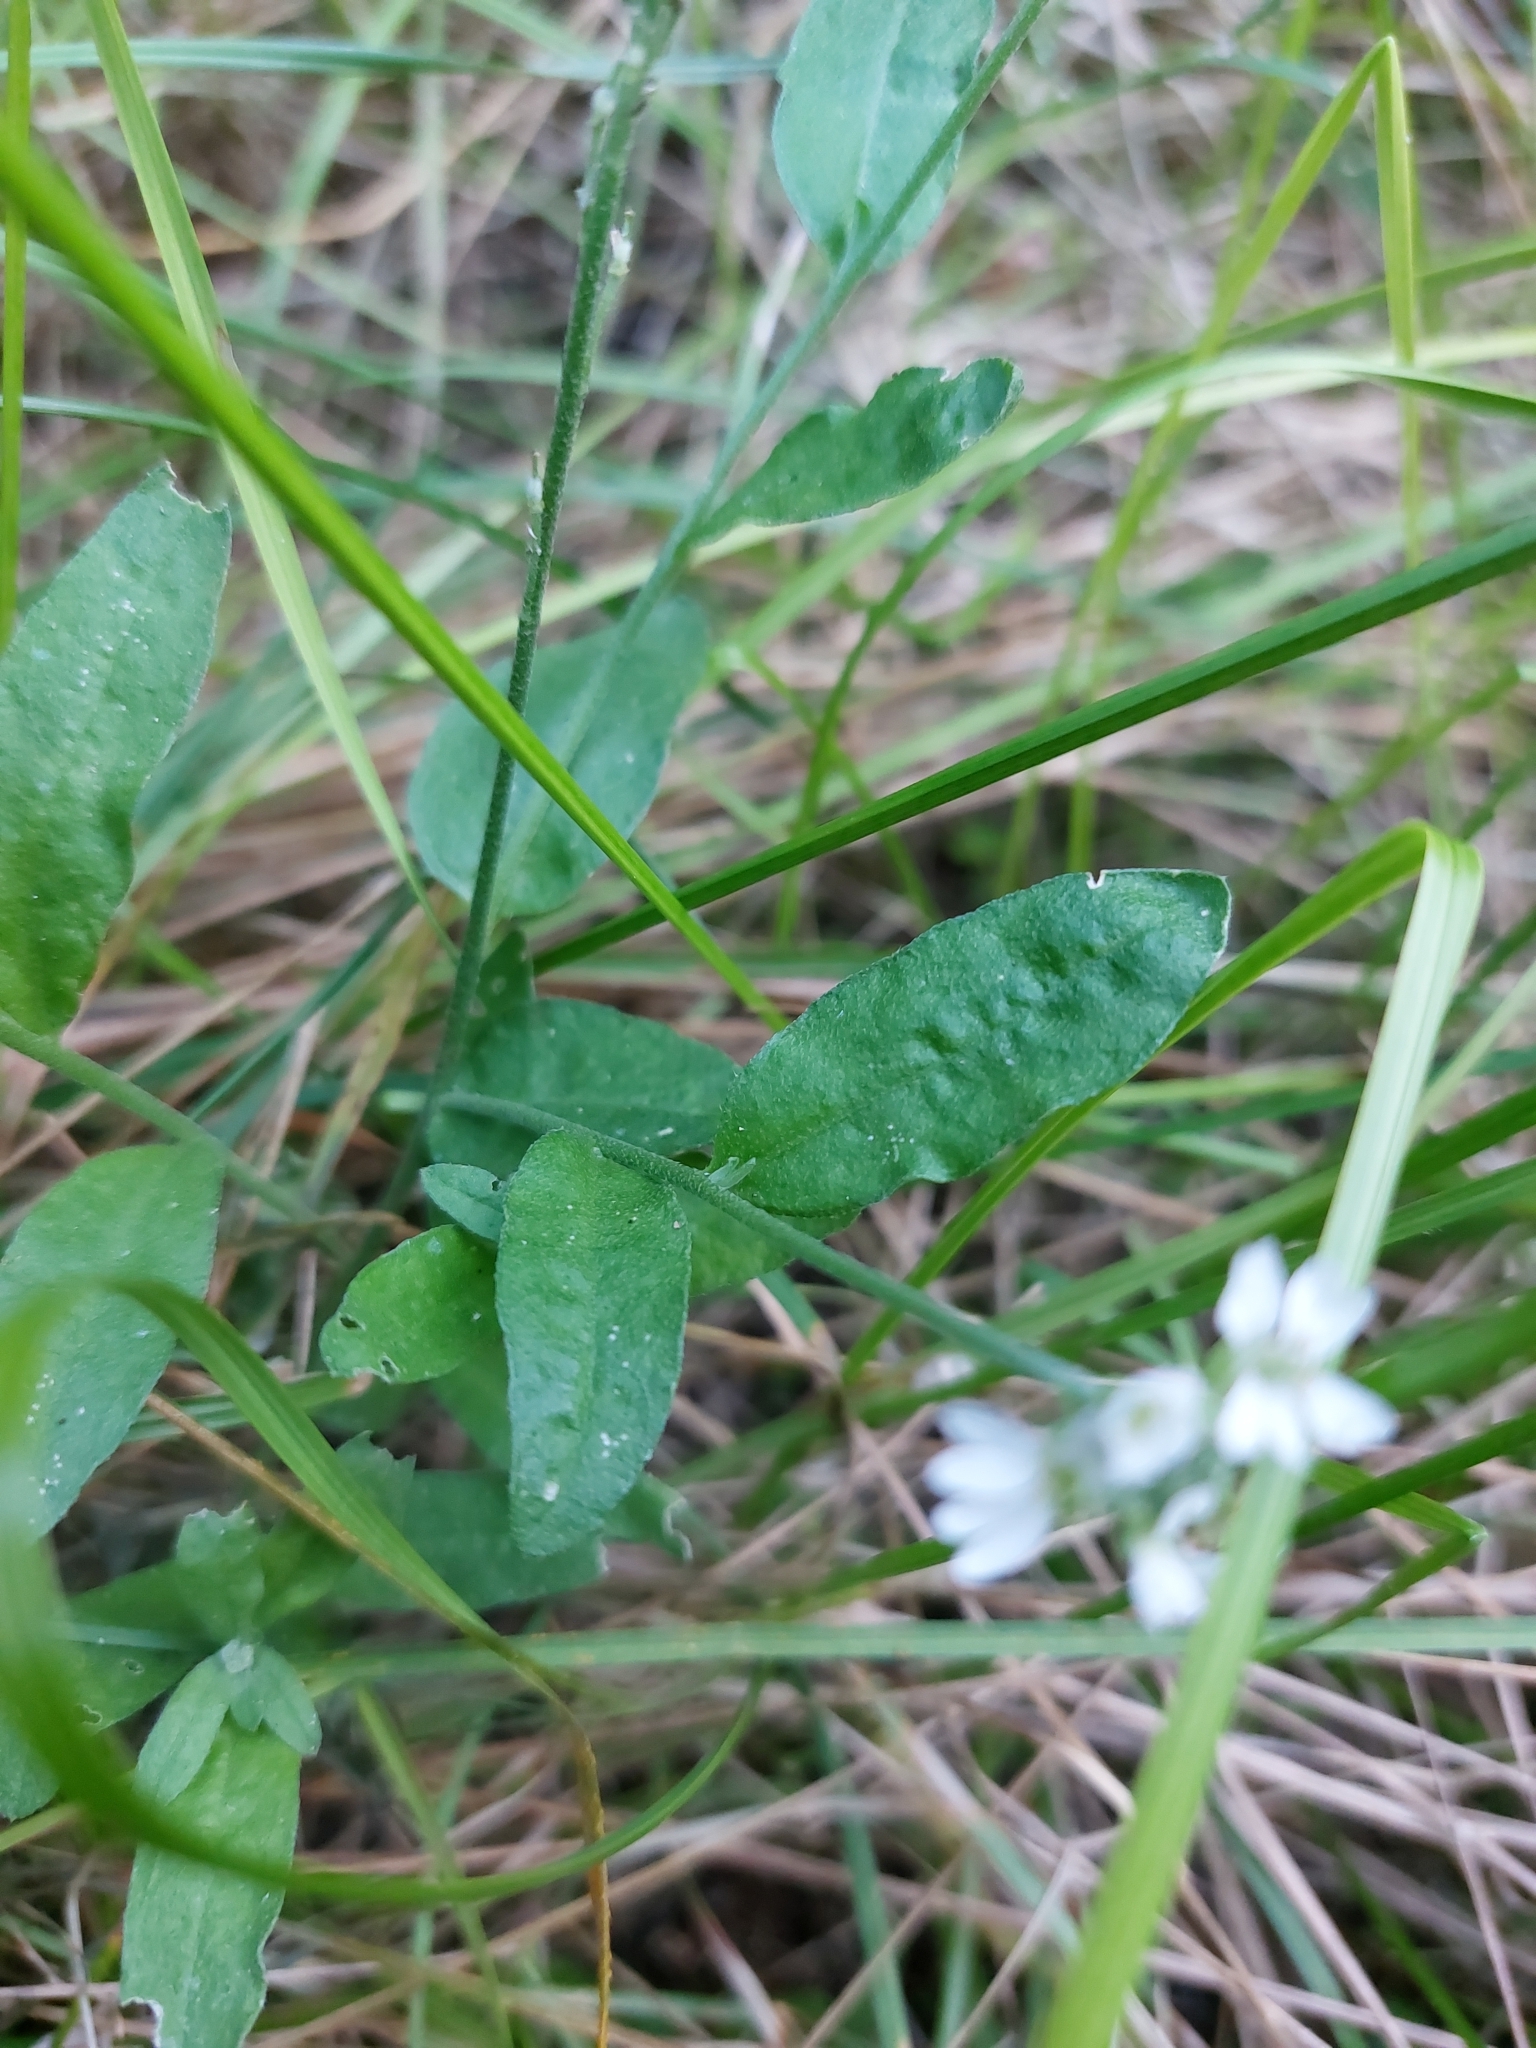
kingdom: Plantae
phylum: Tracheophyta
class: Magnoliopsida
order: Brassicales
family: Brassicaceae
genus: Berteroa
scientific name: Berteroa incana
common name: Hoary alison
